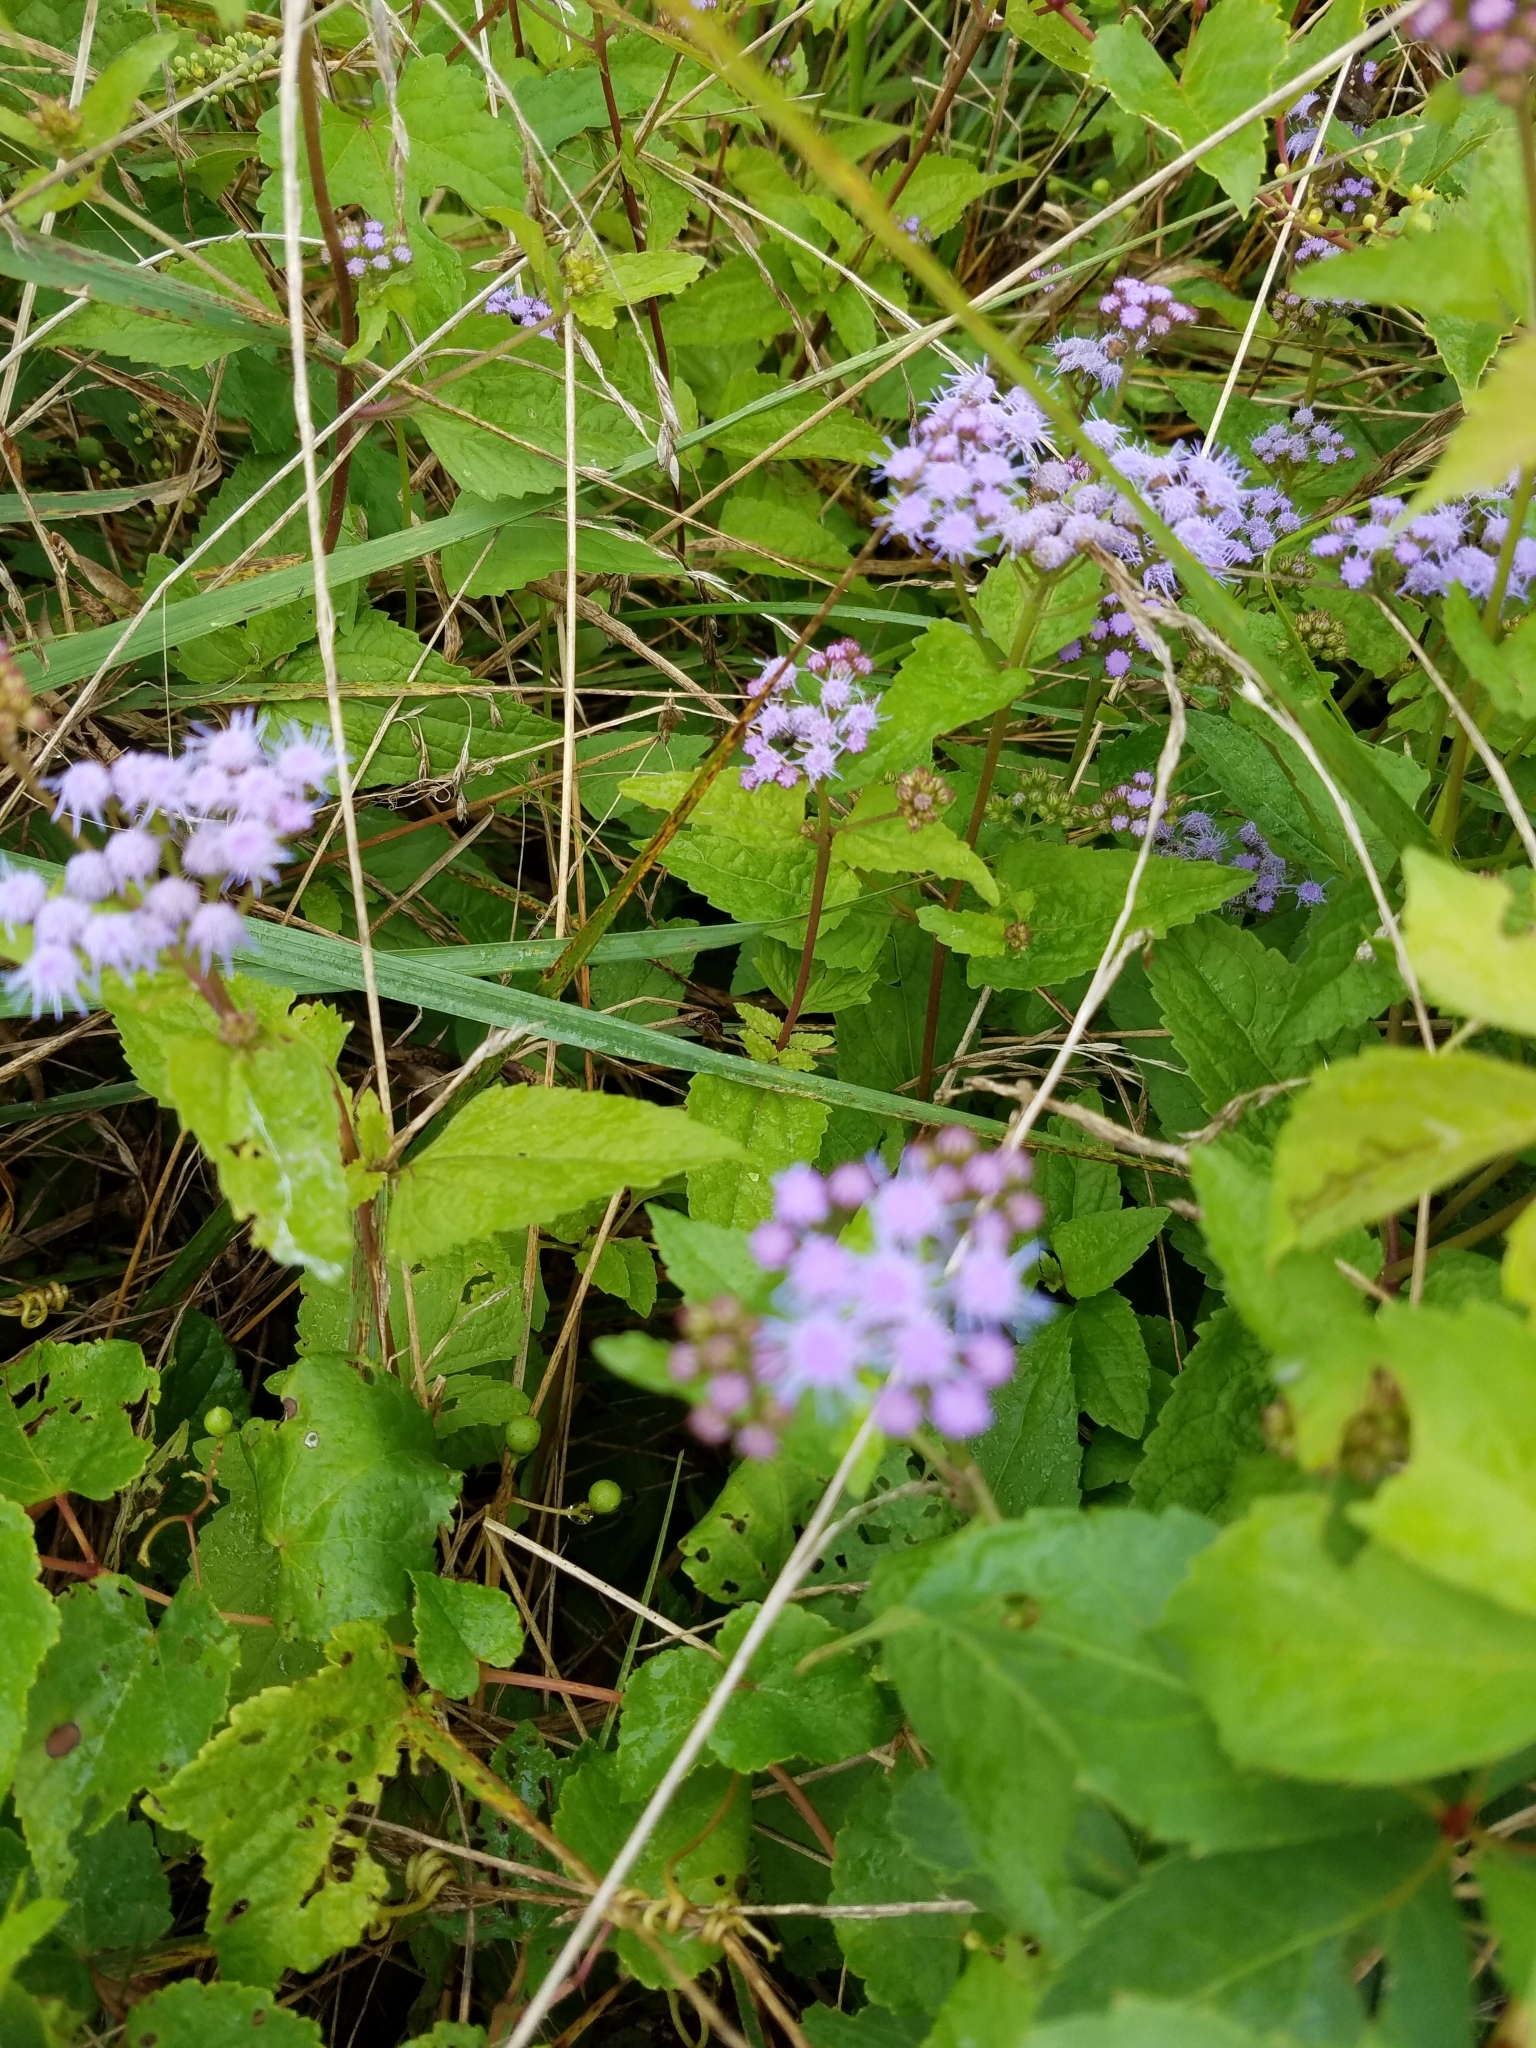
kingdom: Plantae
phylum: Tracheophyta
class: Magnoliopsida
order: Asterales
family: Asteraceae
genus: Conoclinium
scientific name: Conoclinium coelestinum
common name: Blue mistflower
